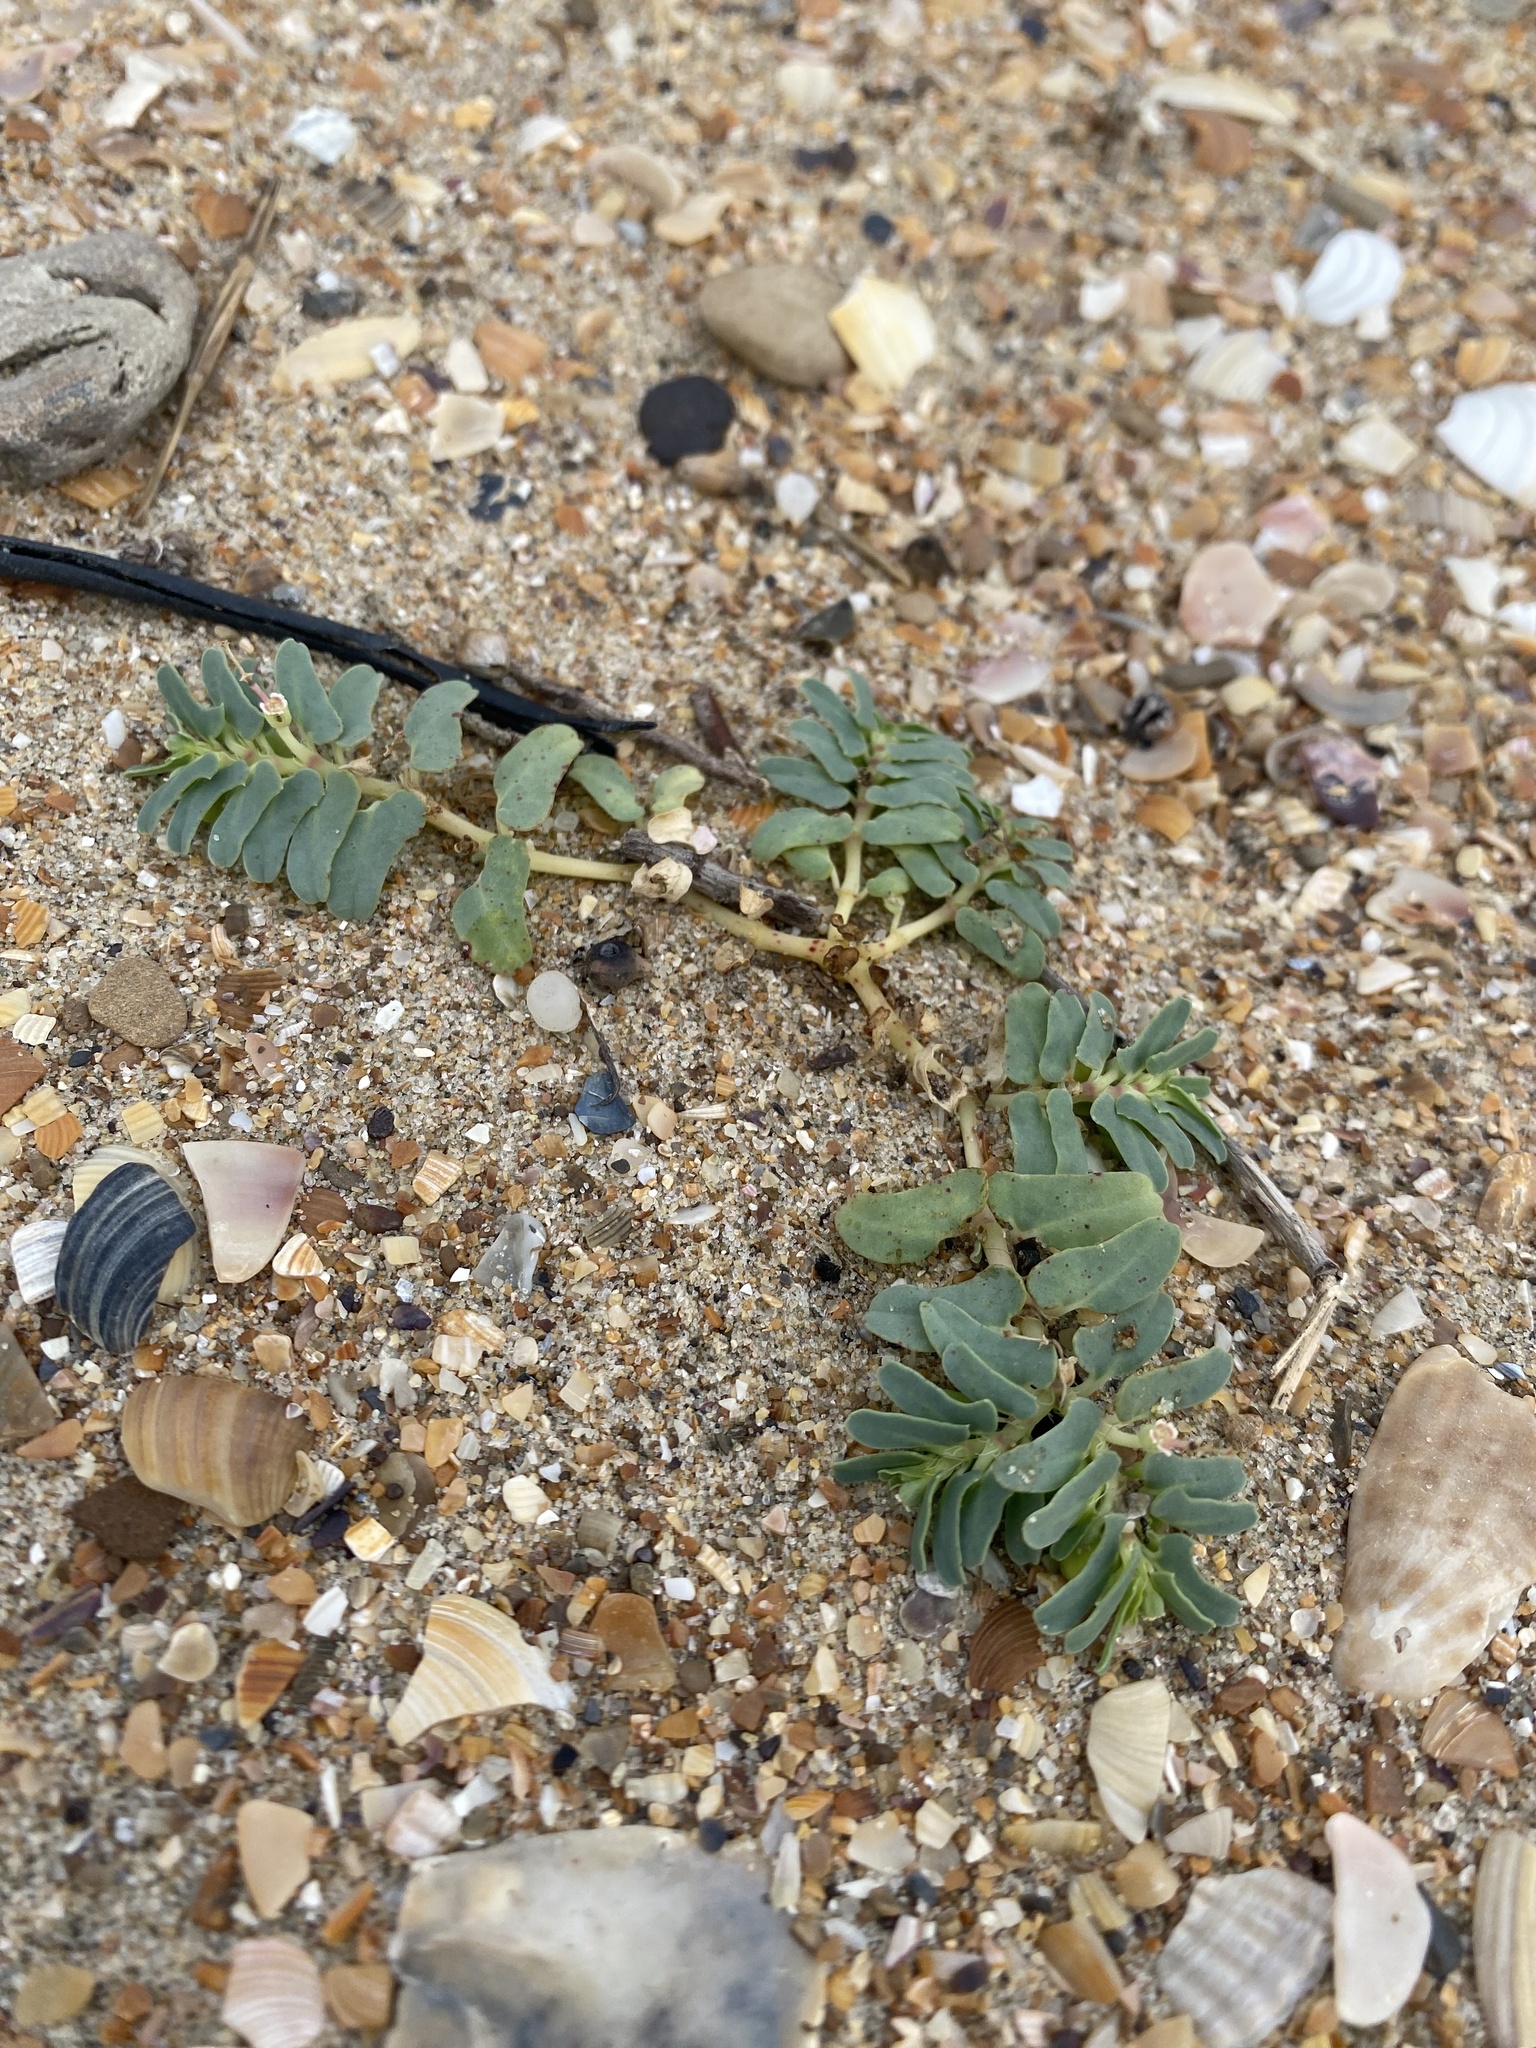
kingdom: Plantae
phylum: Tracheophyta
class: Magnoliopsida
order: Malpighiales
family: Euphorbiaceae
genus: Euphorbia
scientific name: Euphorbia peplis
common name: Purple spurge
